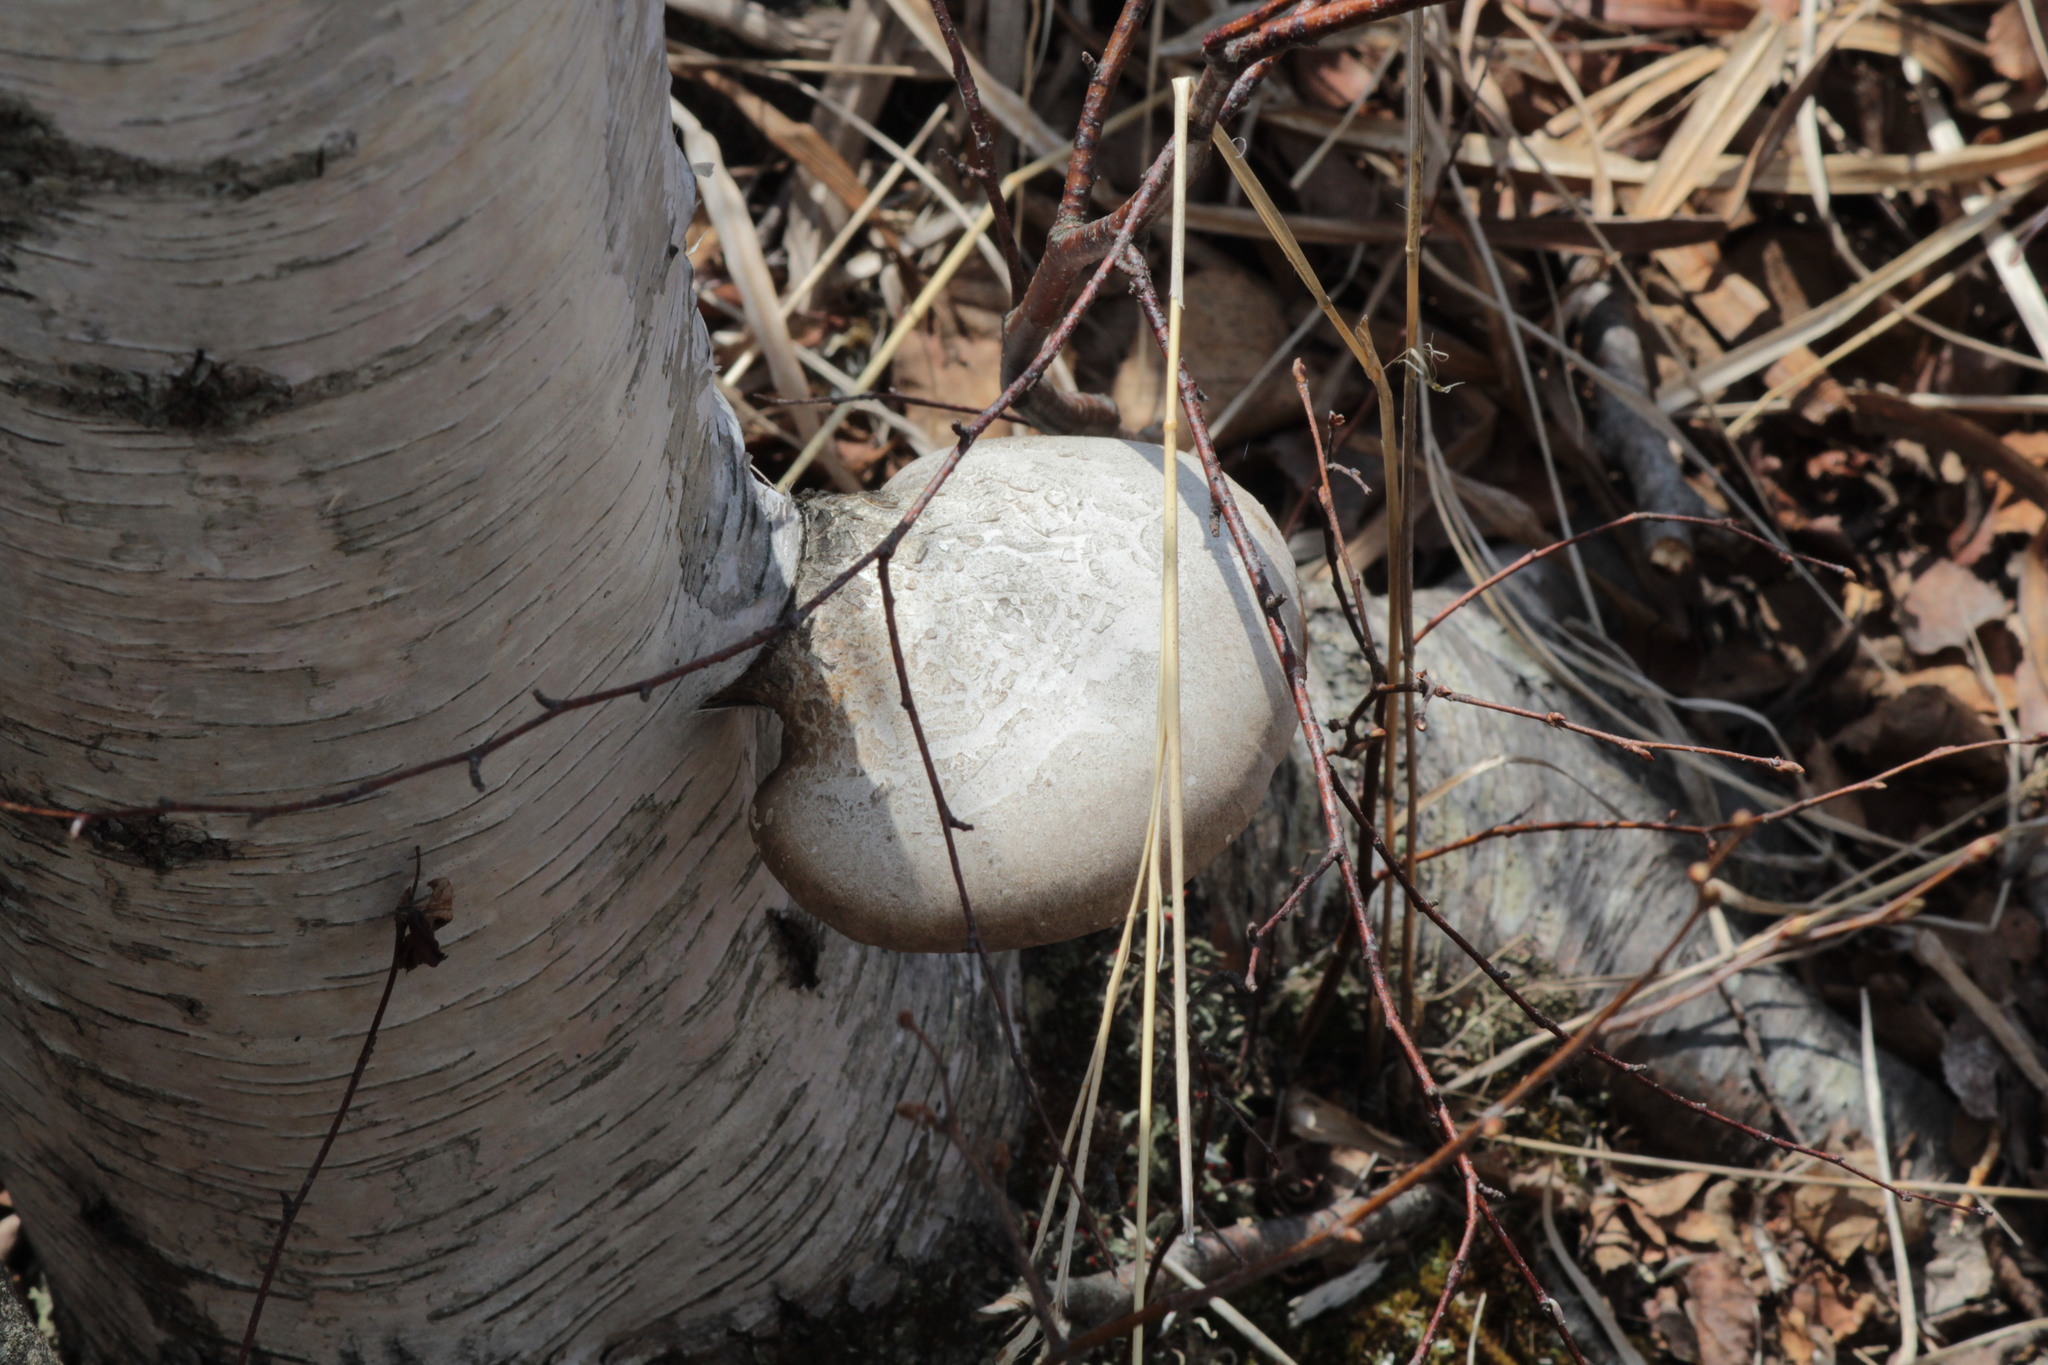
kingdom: Fungi
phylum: Basidiomycota
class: Agaricomycetes
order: Polyporales
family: Fomitopsidaceae
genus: Fomitopsis
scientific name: Fomitopsis betulina
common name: Birch polypore
